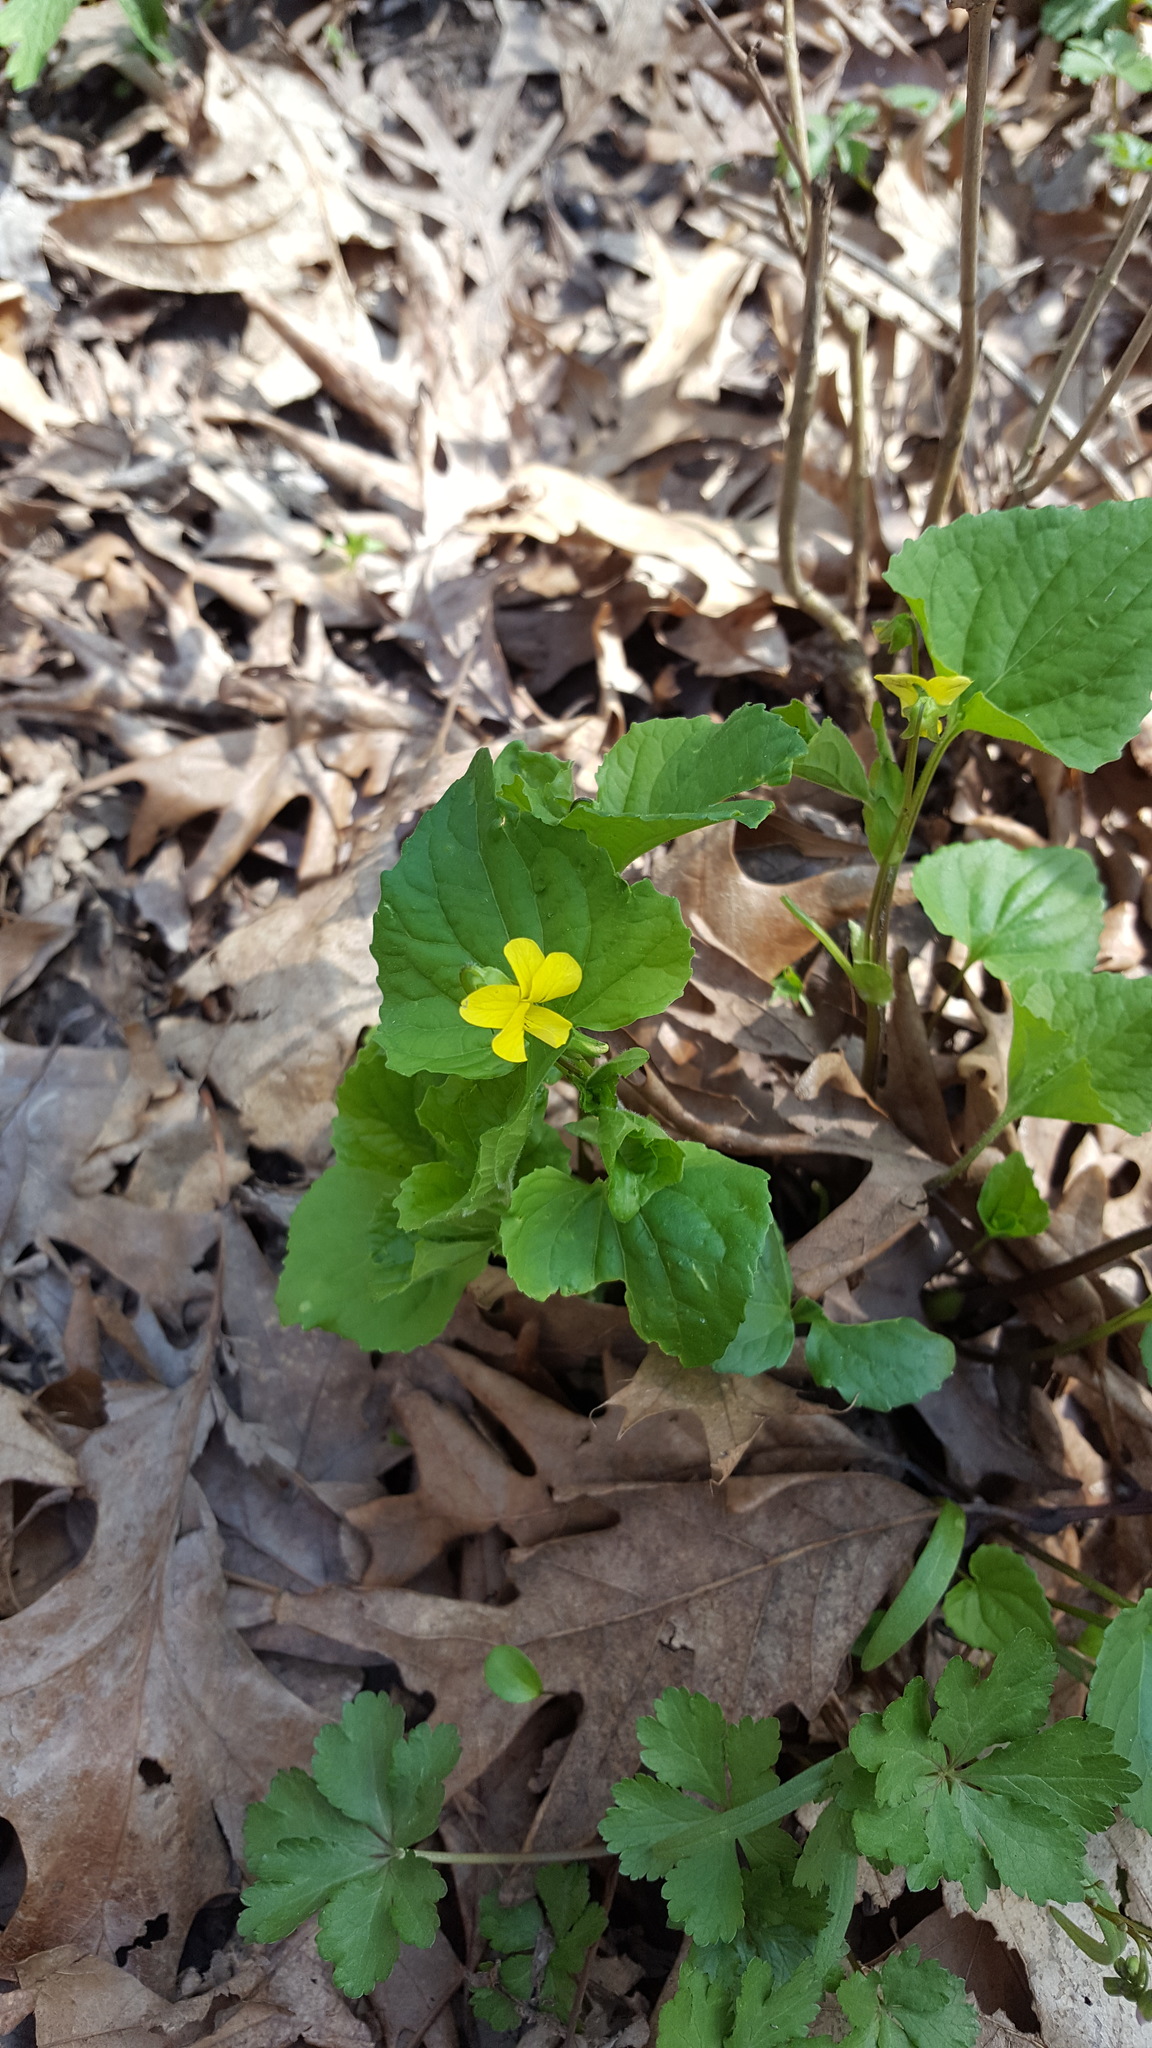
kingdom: Plantae
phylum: Tracheophyta
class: Magnoliopsida
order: Malpighiales
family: Violaceae
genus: Viola
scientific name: Viola eriocarpa
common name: Smooth yellow violet
